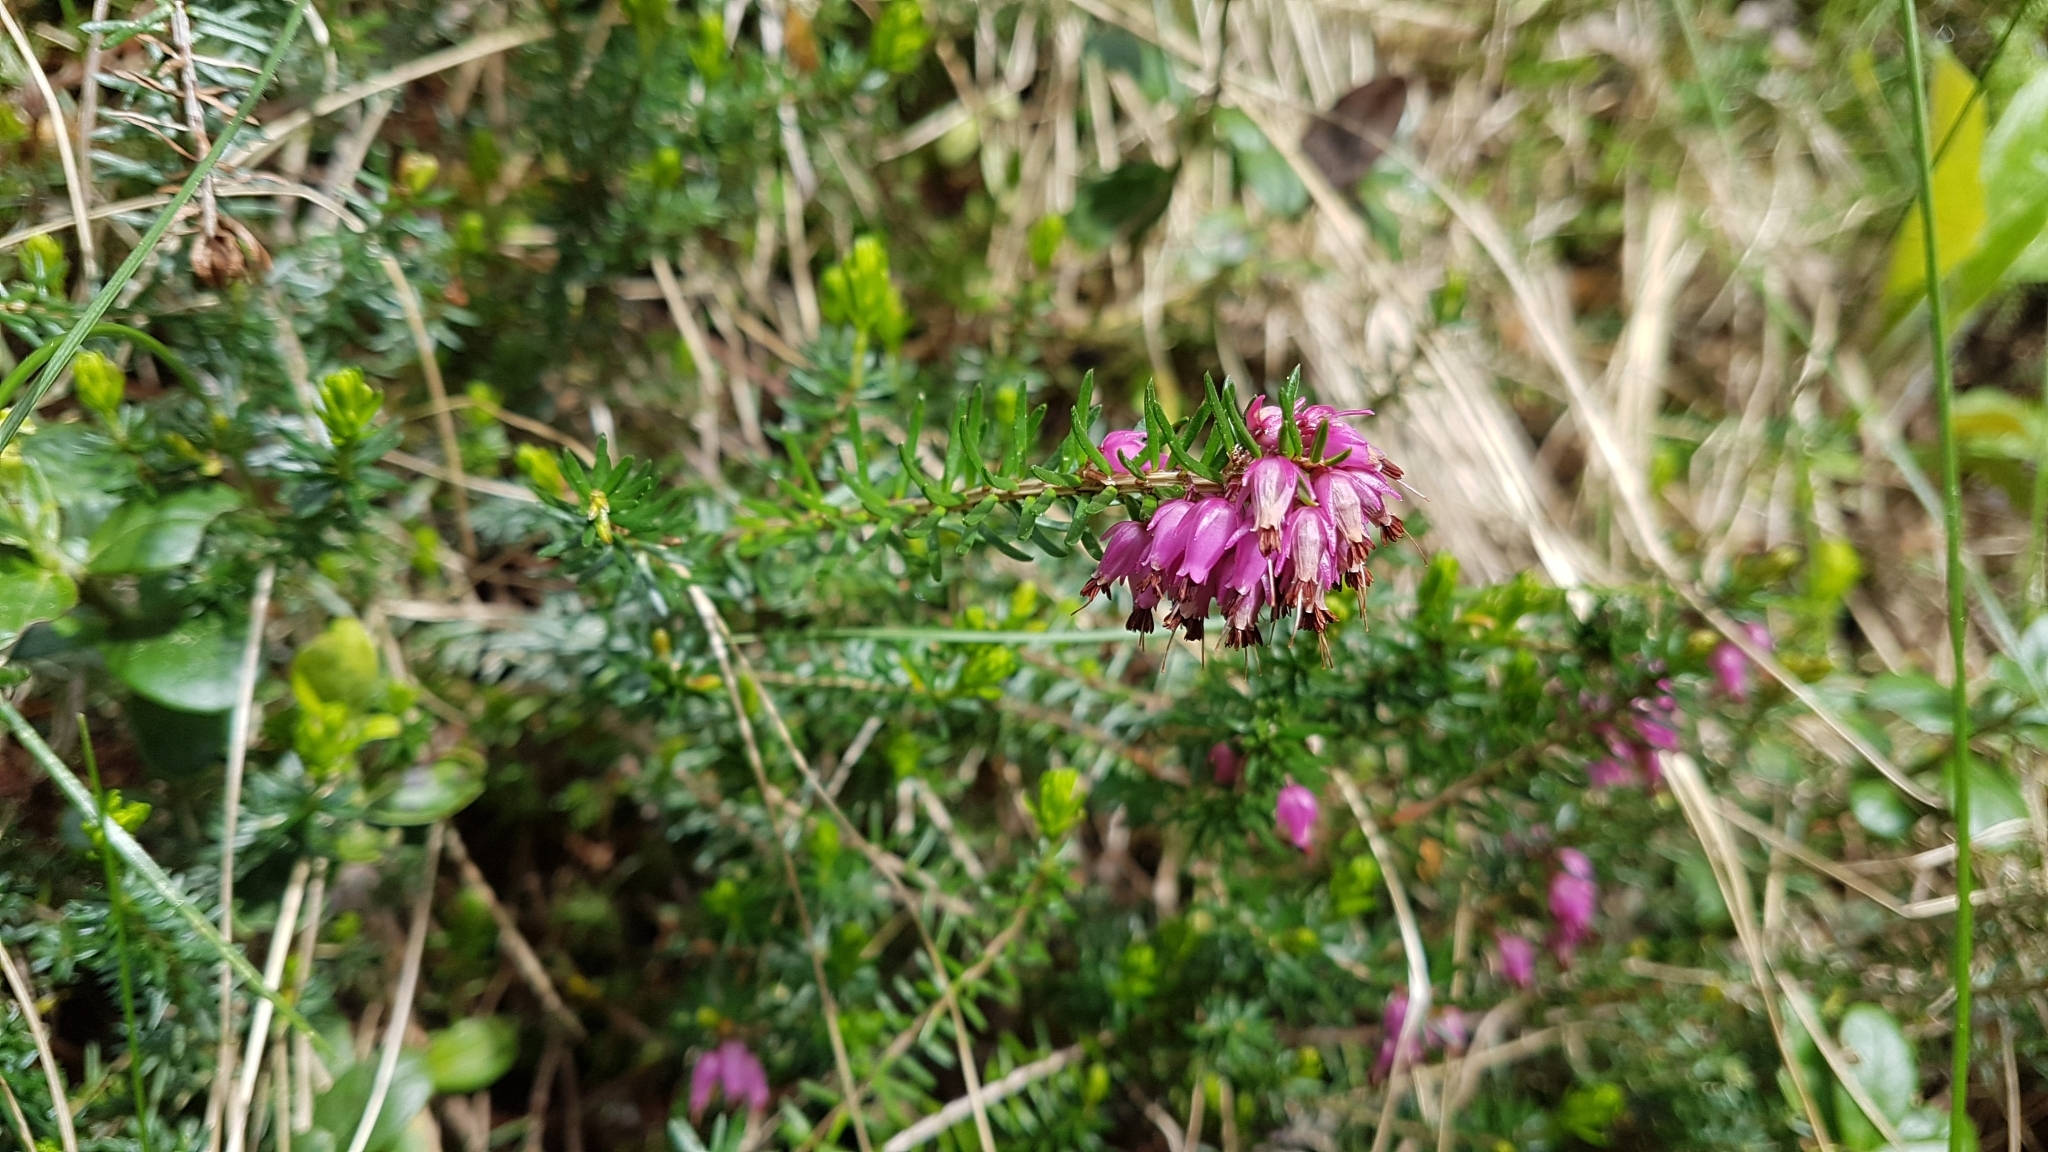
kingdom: Plantae
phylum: Tracheophyta
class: Magnoliopsida
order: Ericales
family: Ericaceae
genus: Erica
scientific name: Erica carnea
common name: Winter heath
